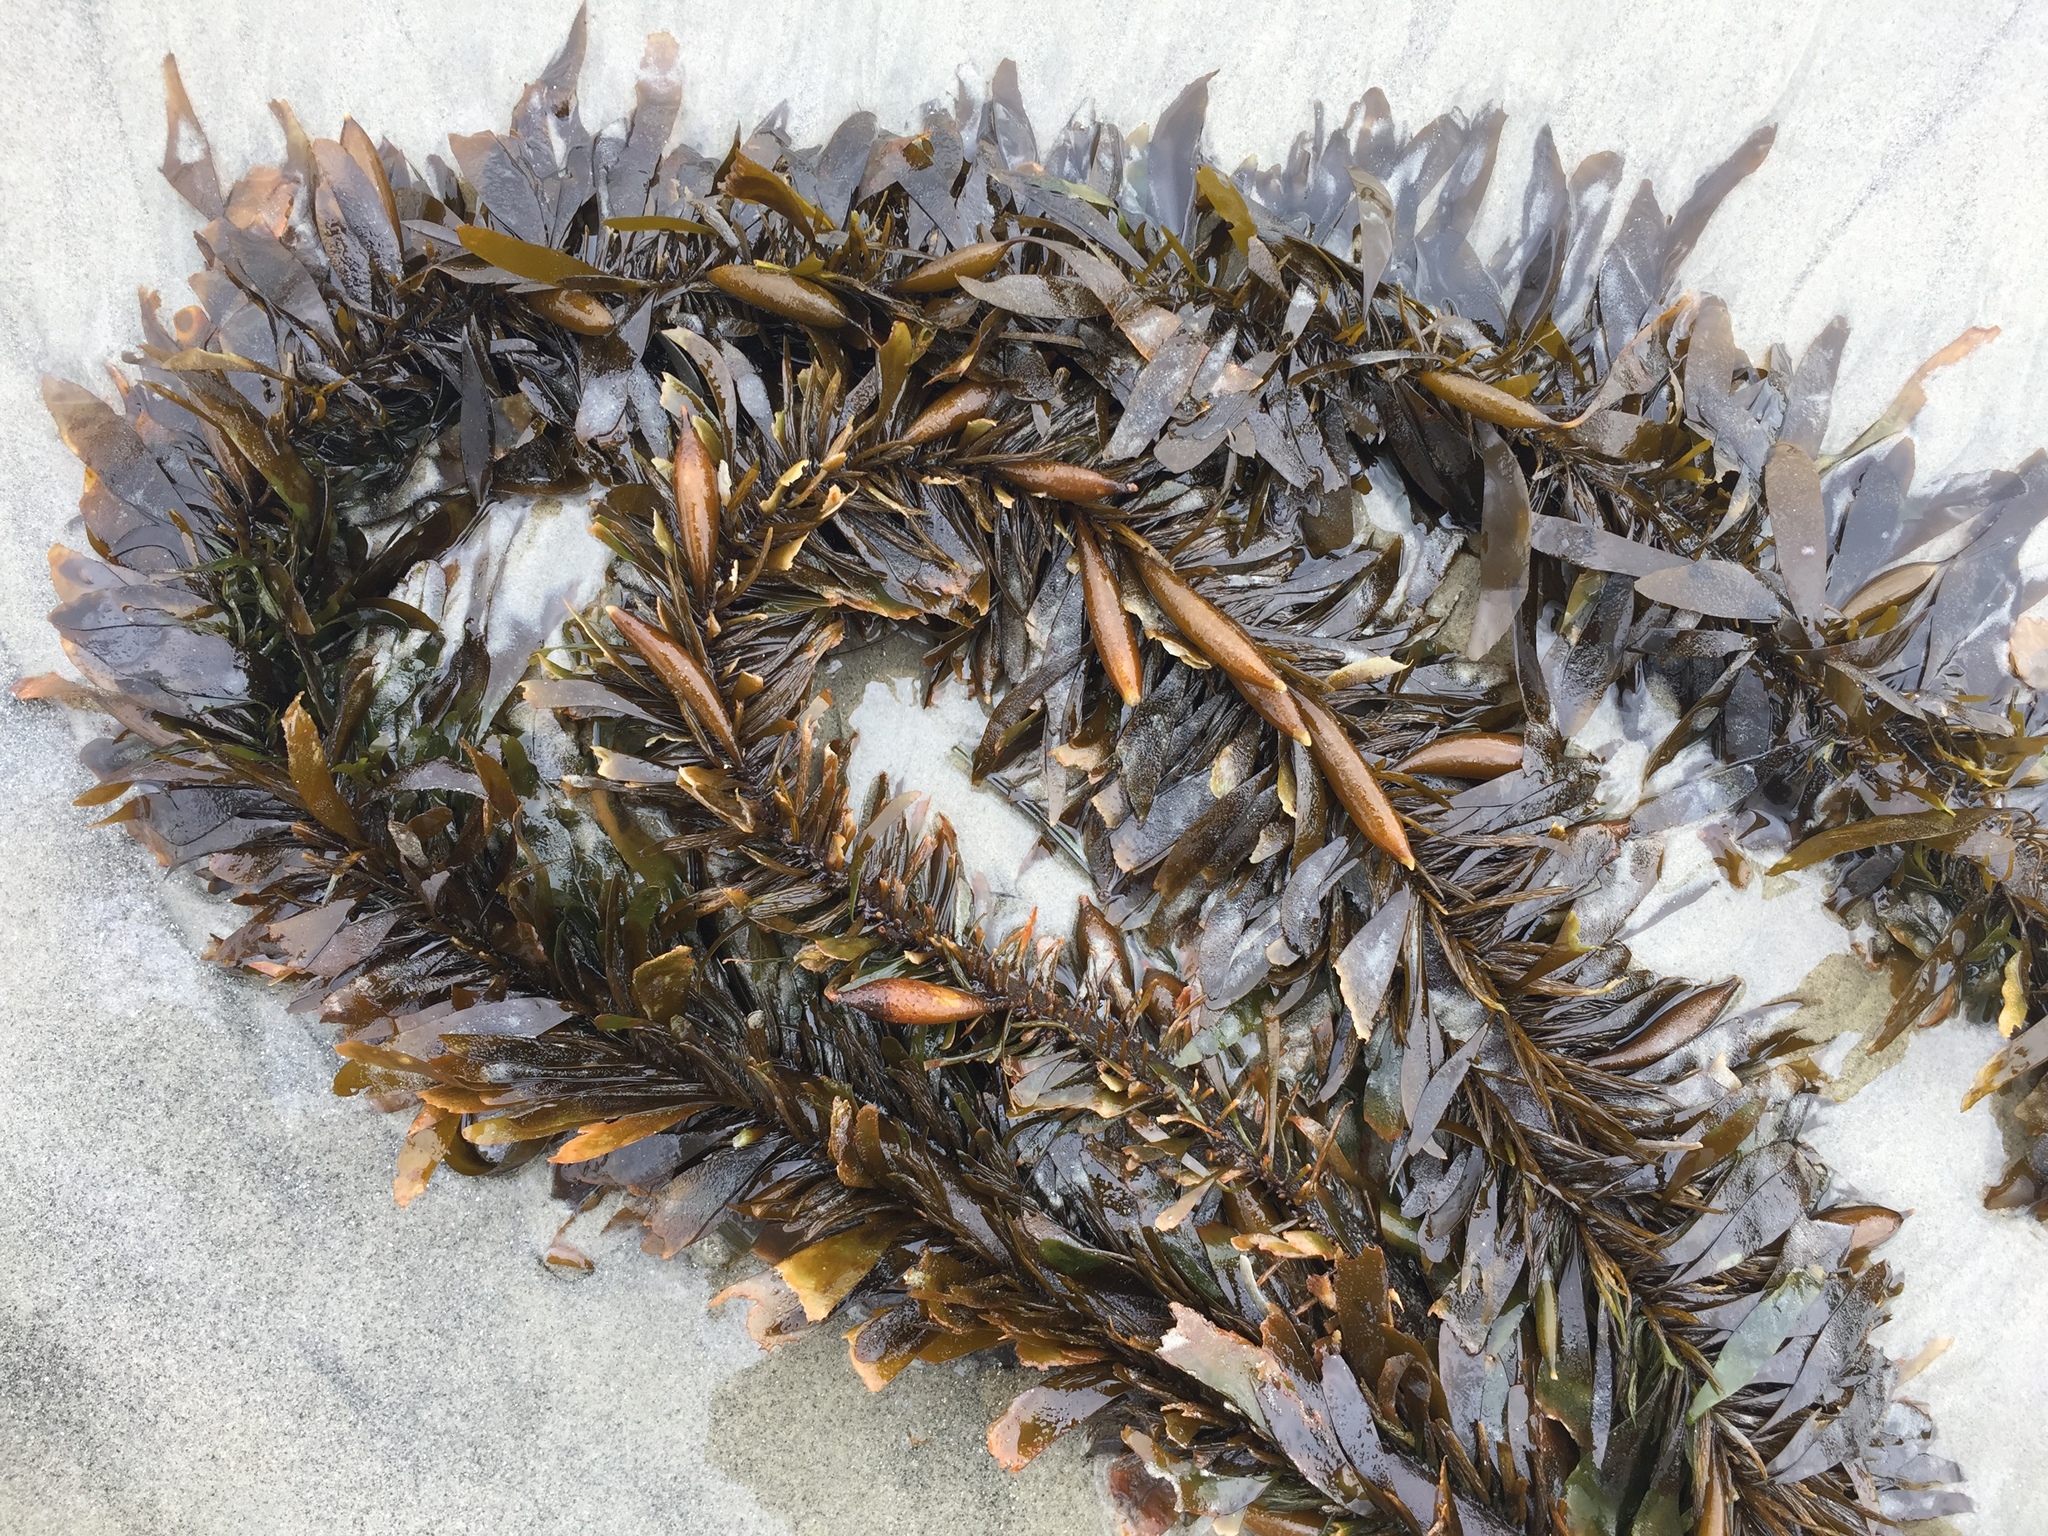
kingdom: Chromista
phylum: Ochrophyta
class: Phaeophyceae
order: Laminariales
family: Lessoniaceae
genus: Egregia
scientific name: Egregia menziesii
